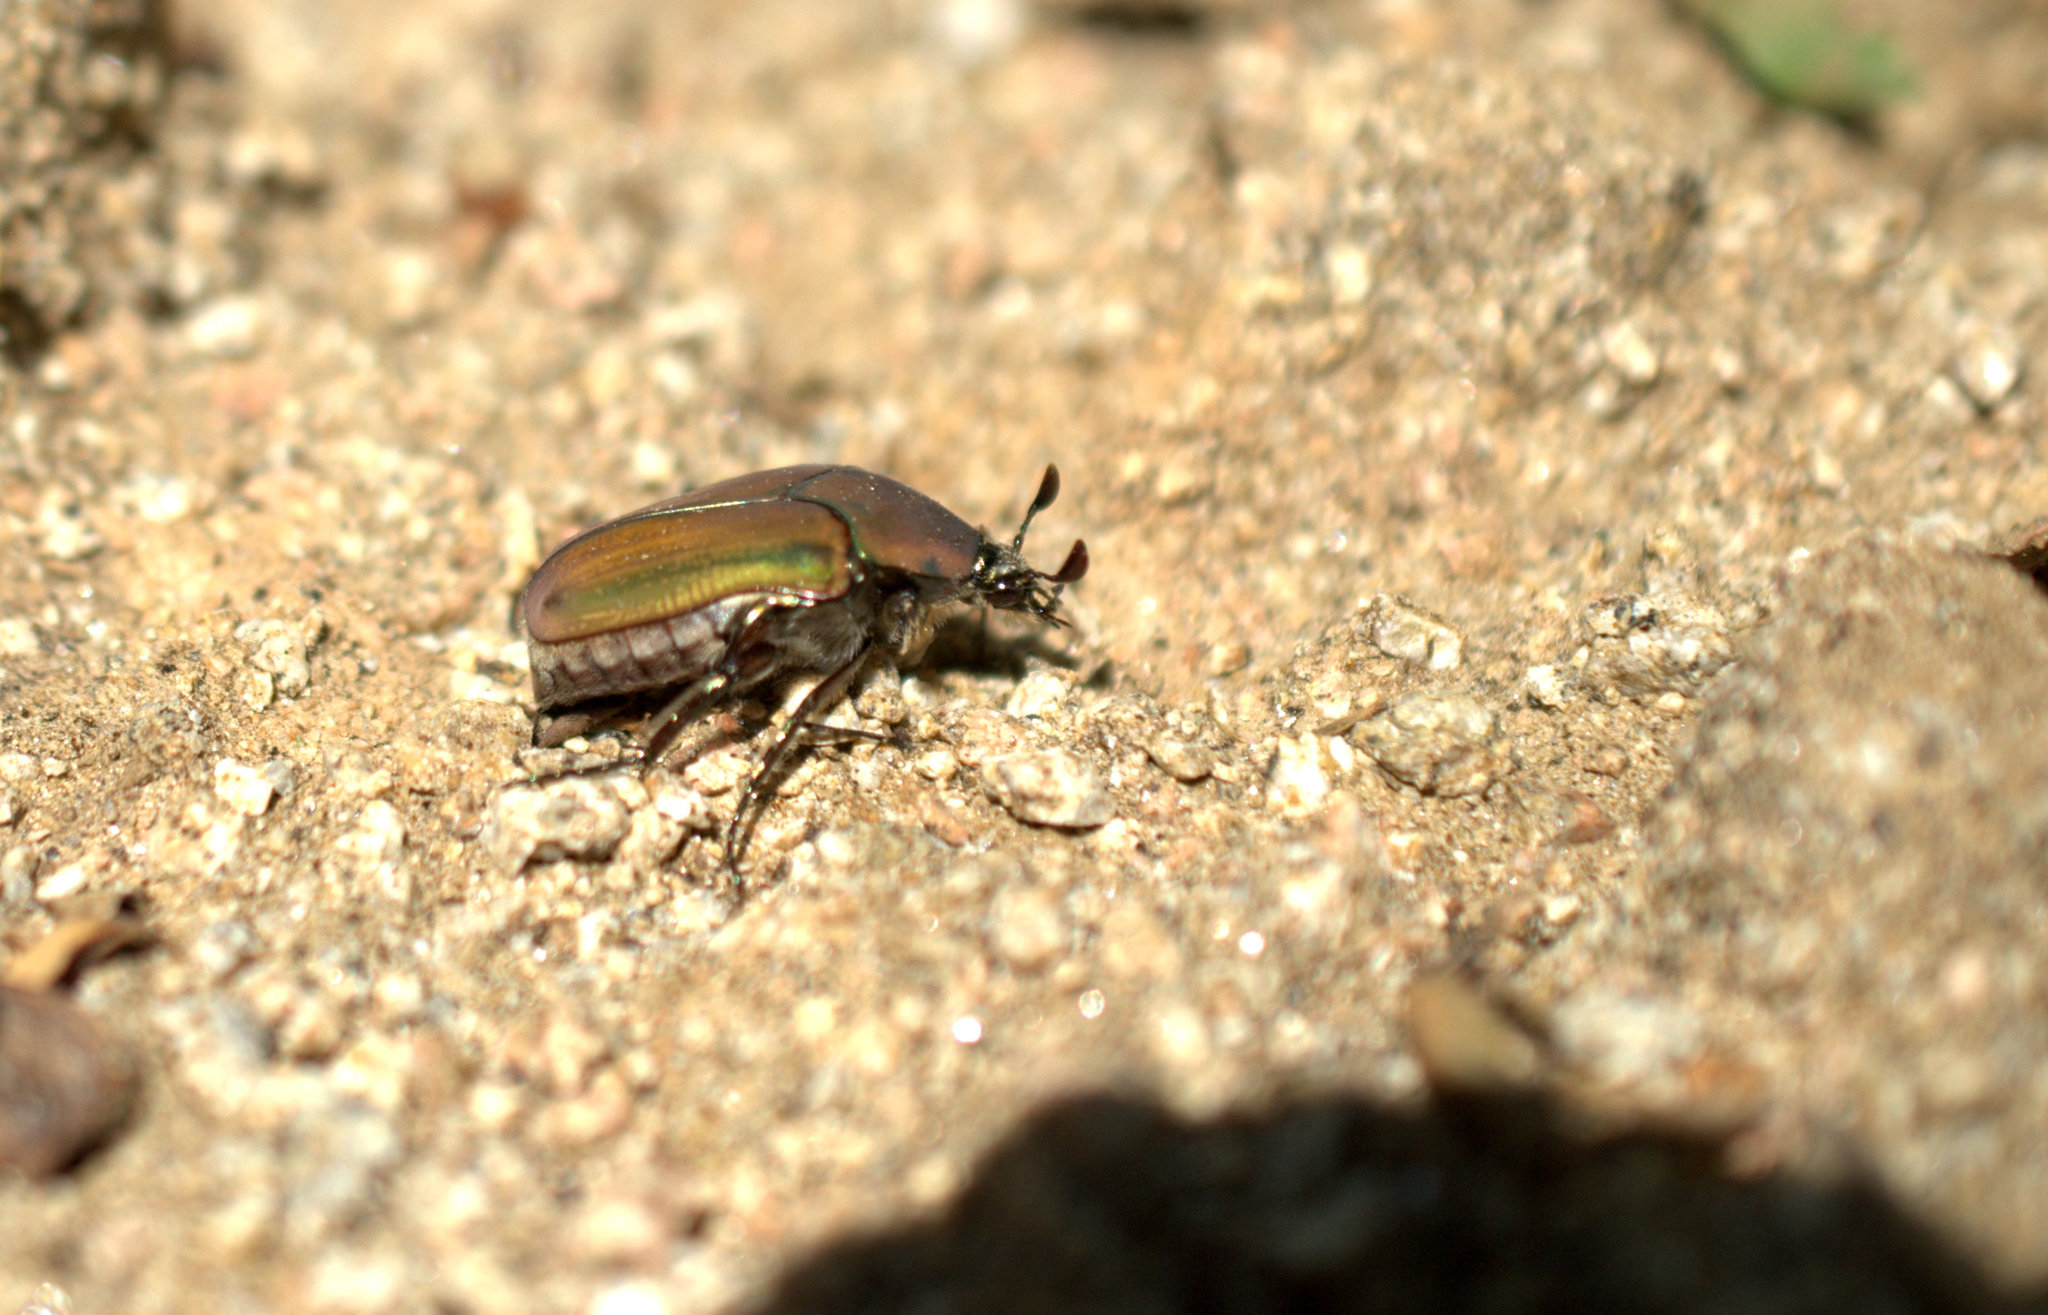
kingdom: Animalia
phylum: Arthropoda
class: Insecta
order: Coleoptera
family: Scarabaeidae
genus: Cotinis
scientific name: Cotinis mutabilis
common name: Figeater beetle
